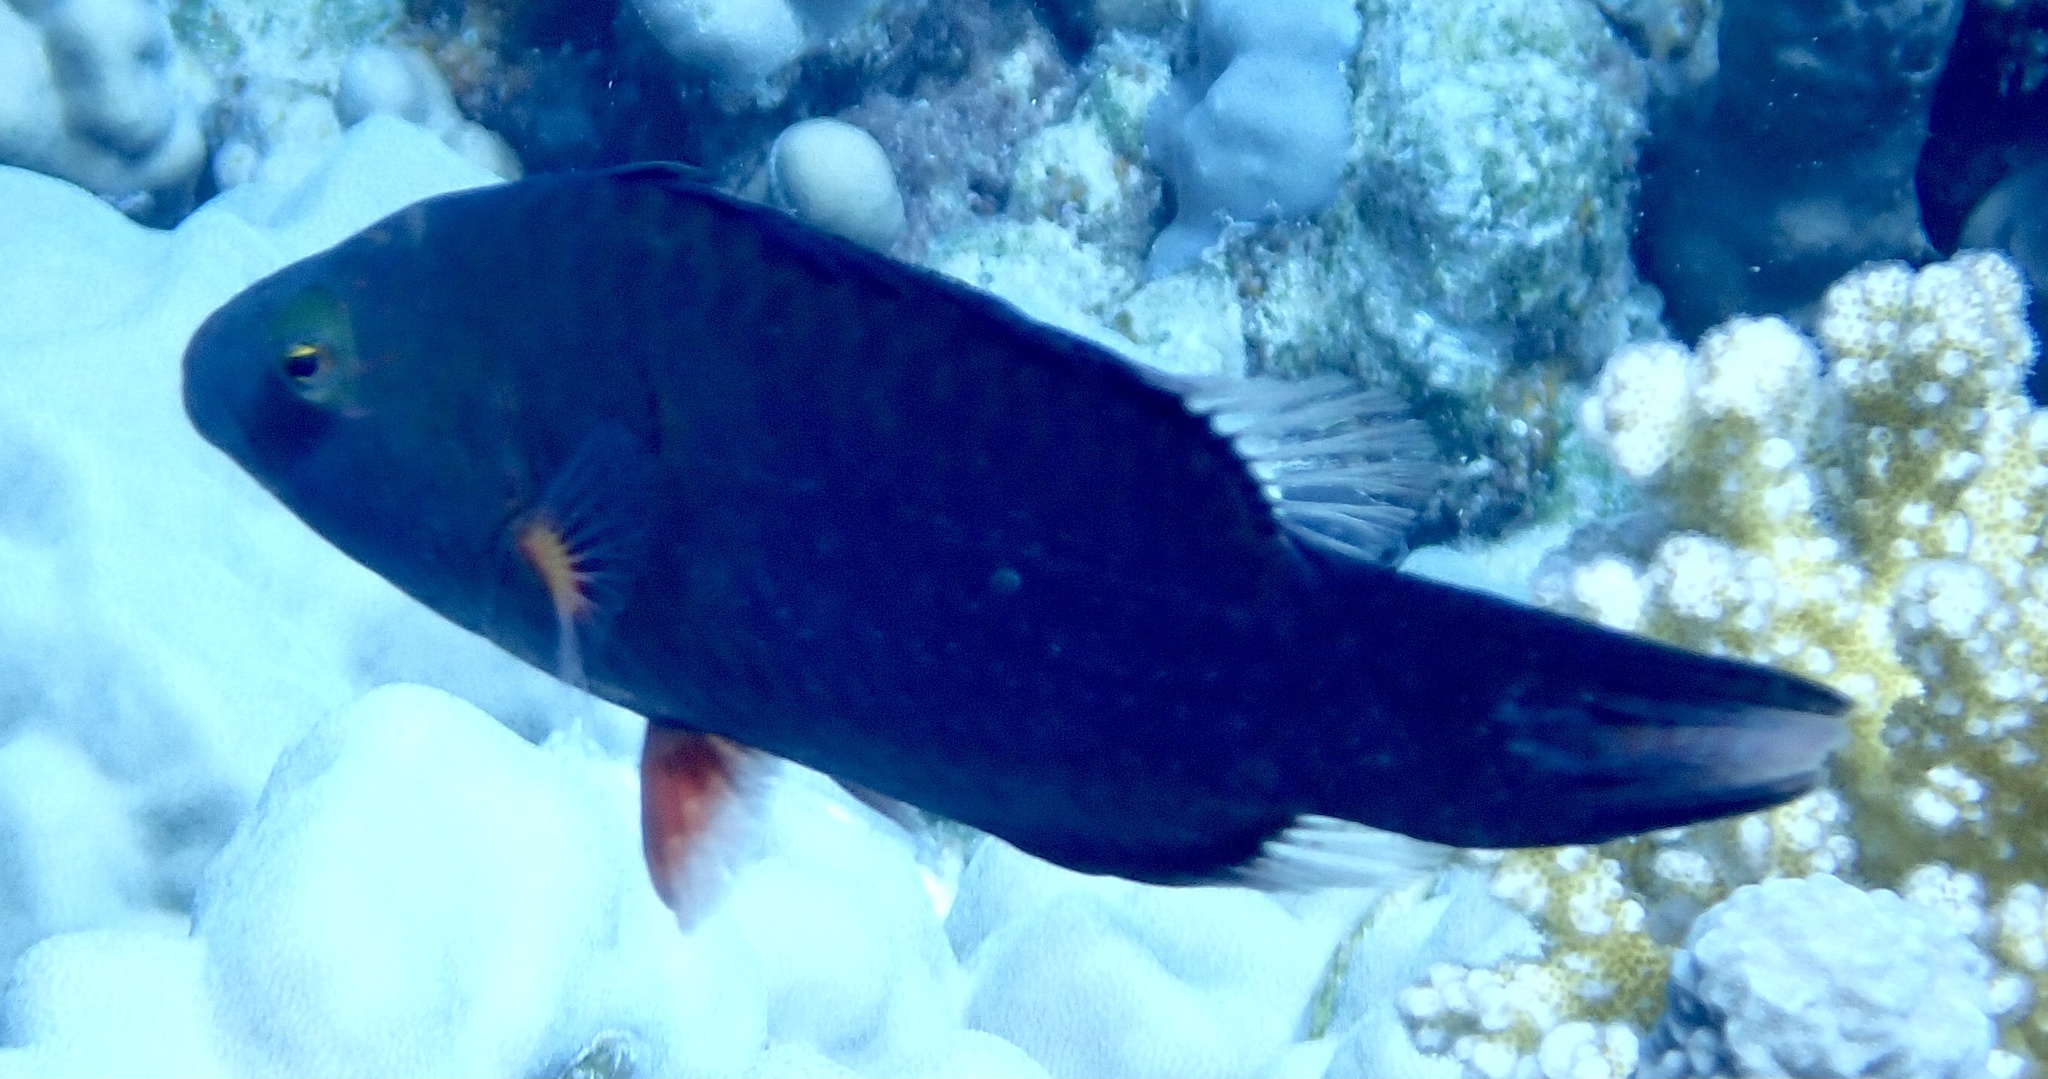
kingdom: Animalia
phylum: Chordata
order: Perciformes
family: Labridae
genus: Oxycheilinus
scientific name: Oxycheilinus digramma
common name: Bandcheek wrasse
